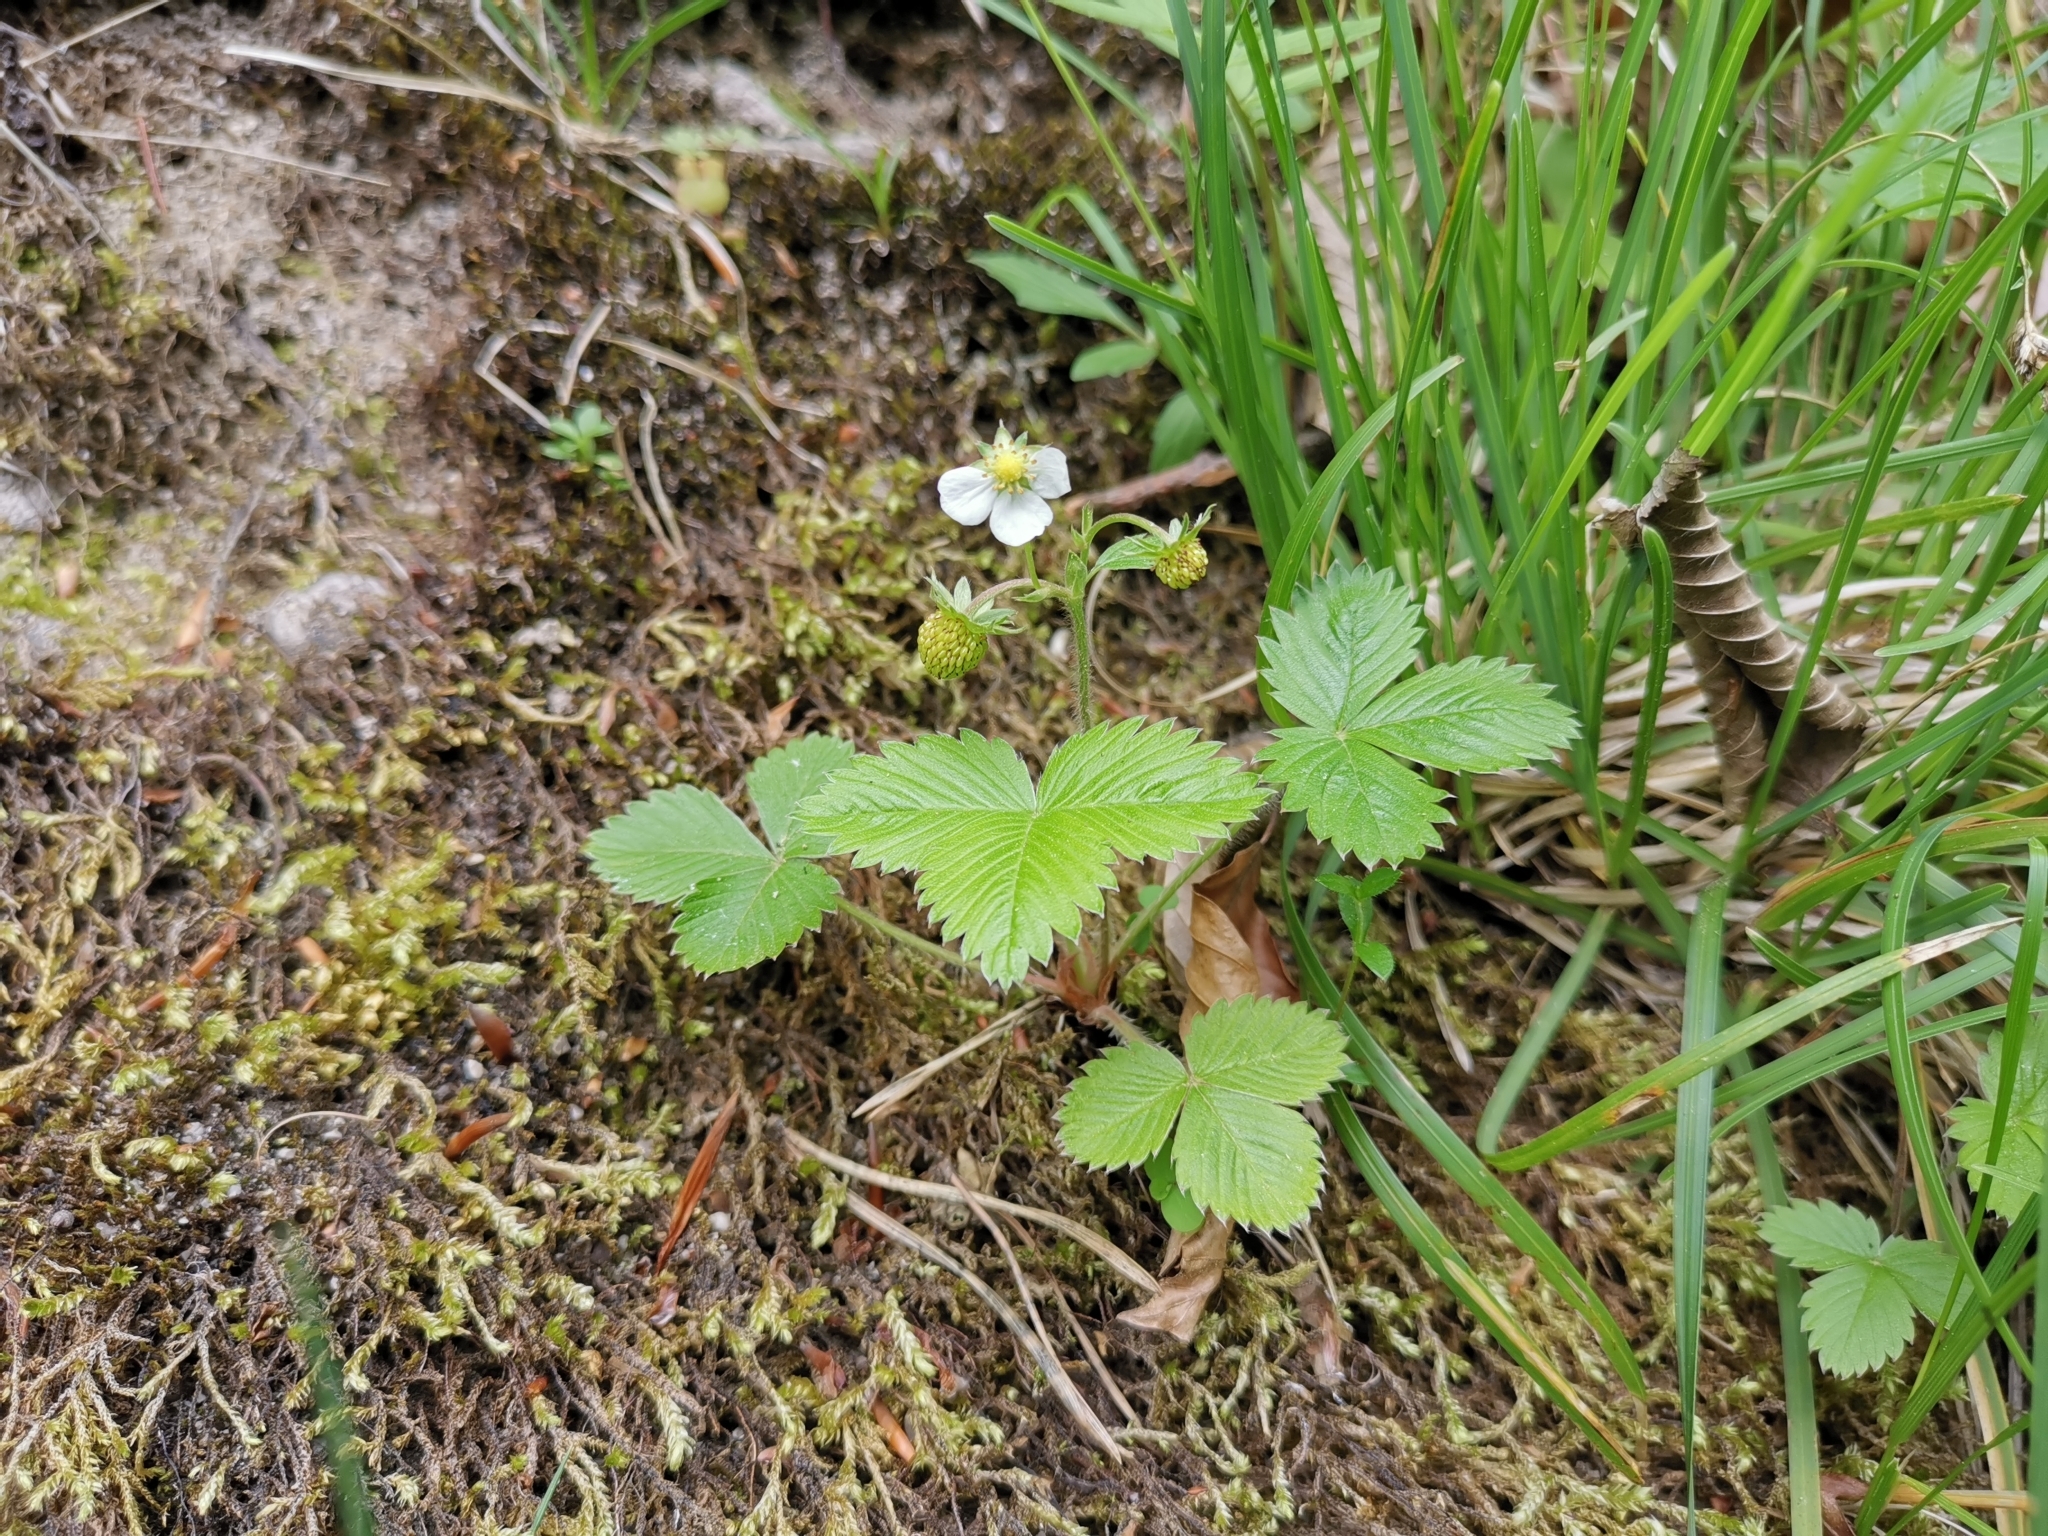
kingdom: Plantae
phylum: Tracheophyta
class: Magnoliopsida
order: Rosales
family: Rosaceae
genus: Fragaria
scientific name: Fragaria vesca
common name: Wild strawberry
